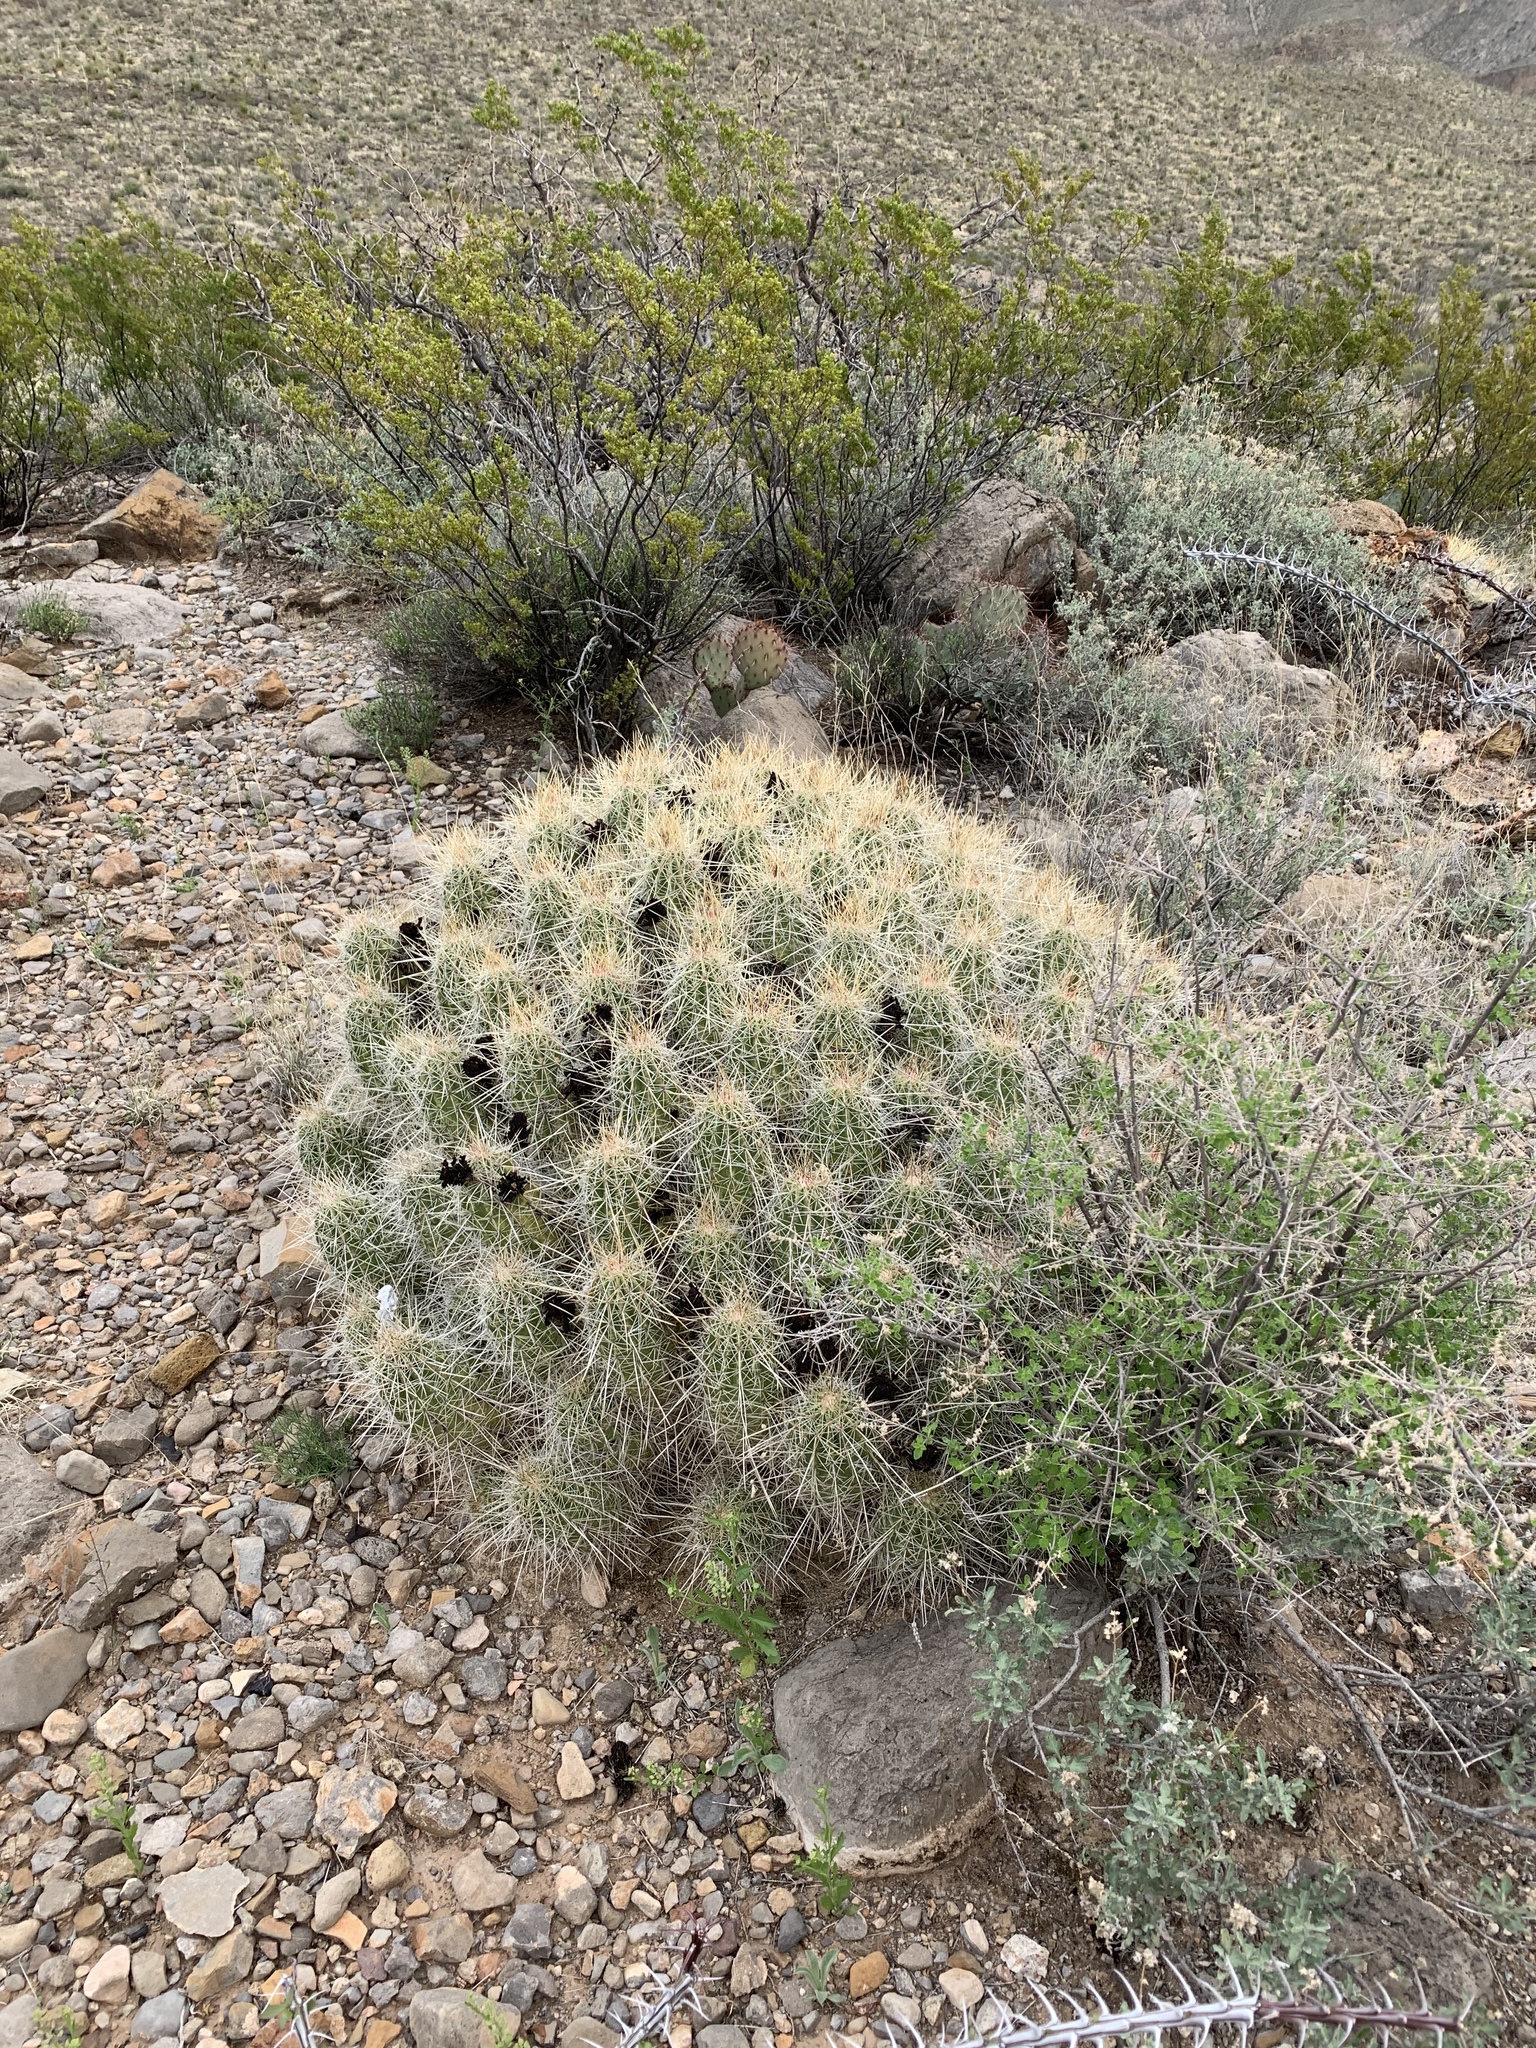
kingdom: Plantae
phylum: Tracheophyta
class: Magnoliopsida
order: Caryophyllales
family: Cactaceae
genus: Echinocereus
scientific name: Echinocereus stramineus
